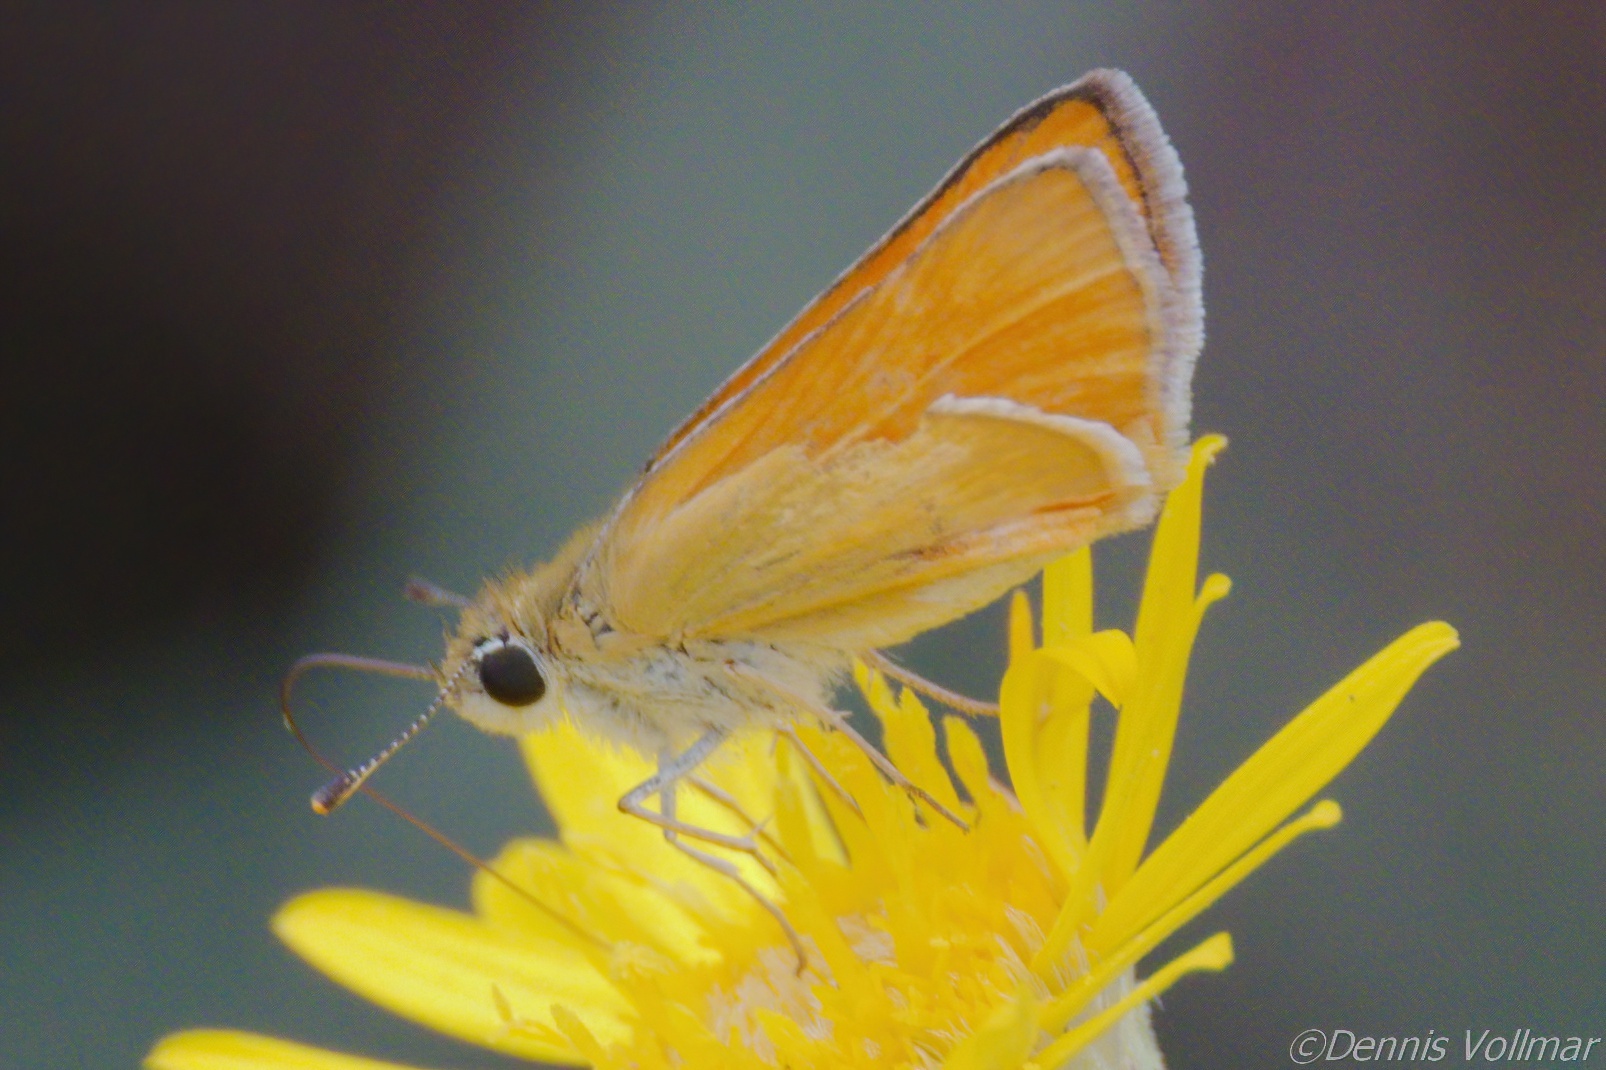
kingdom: Animalia
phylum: Arthropoda
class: Insecta
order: Lepidoptera
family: Hesperiidae
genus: Copaeodes
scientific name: Copaeodes aurantiaca
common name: Orange skipperling
